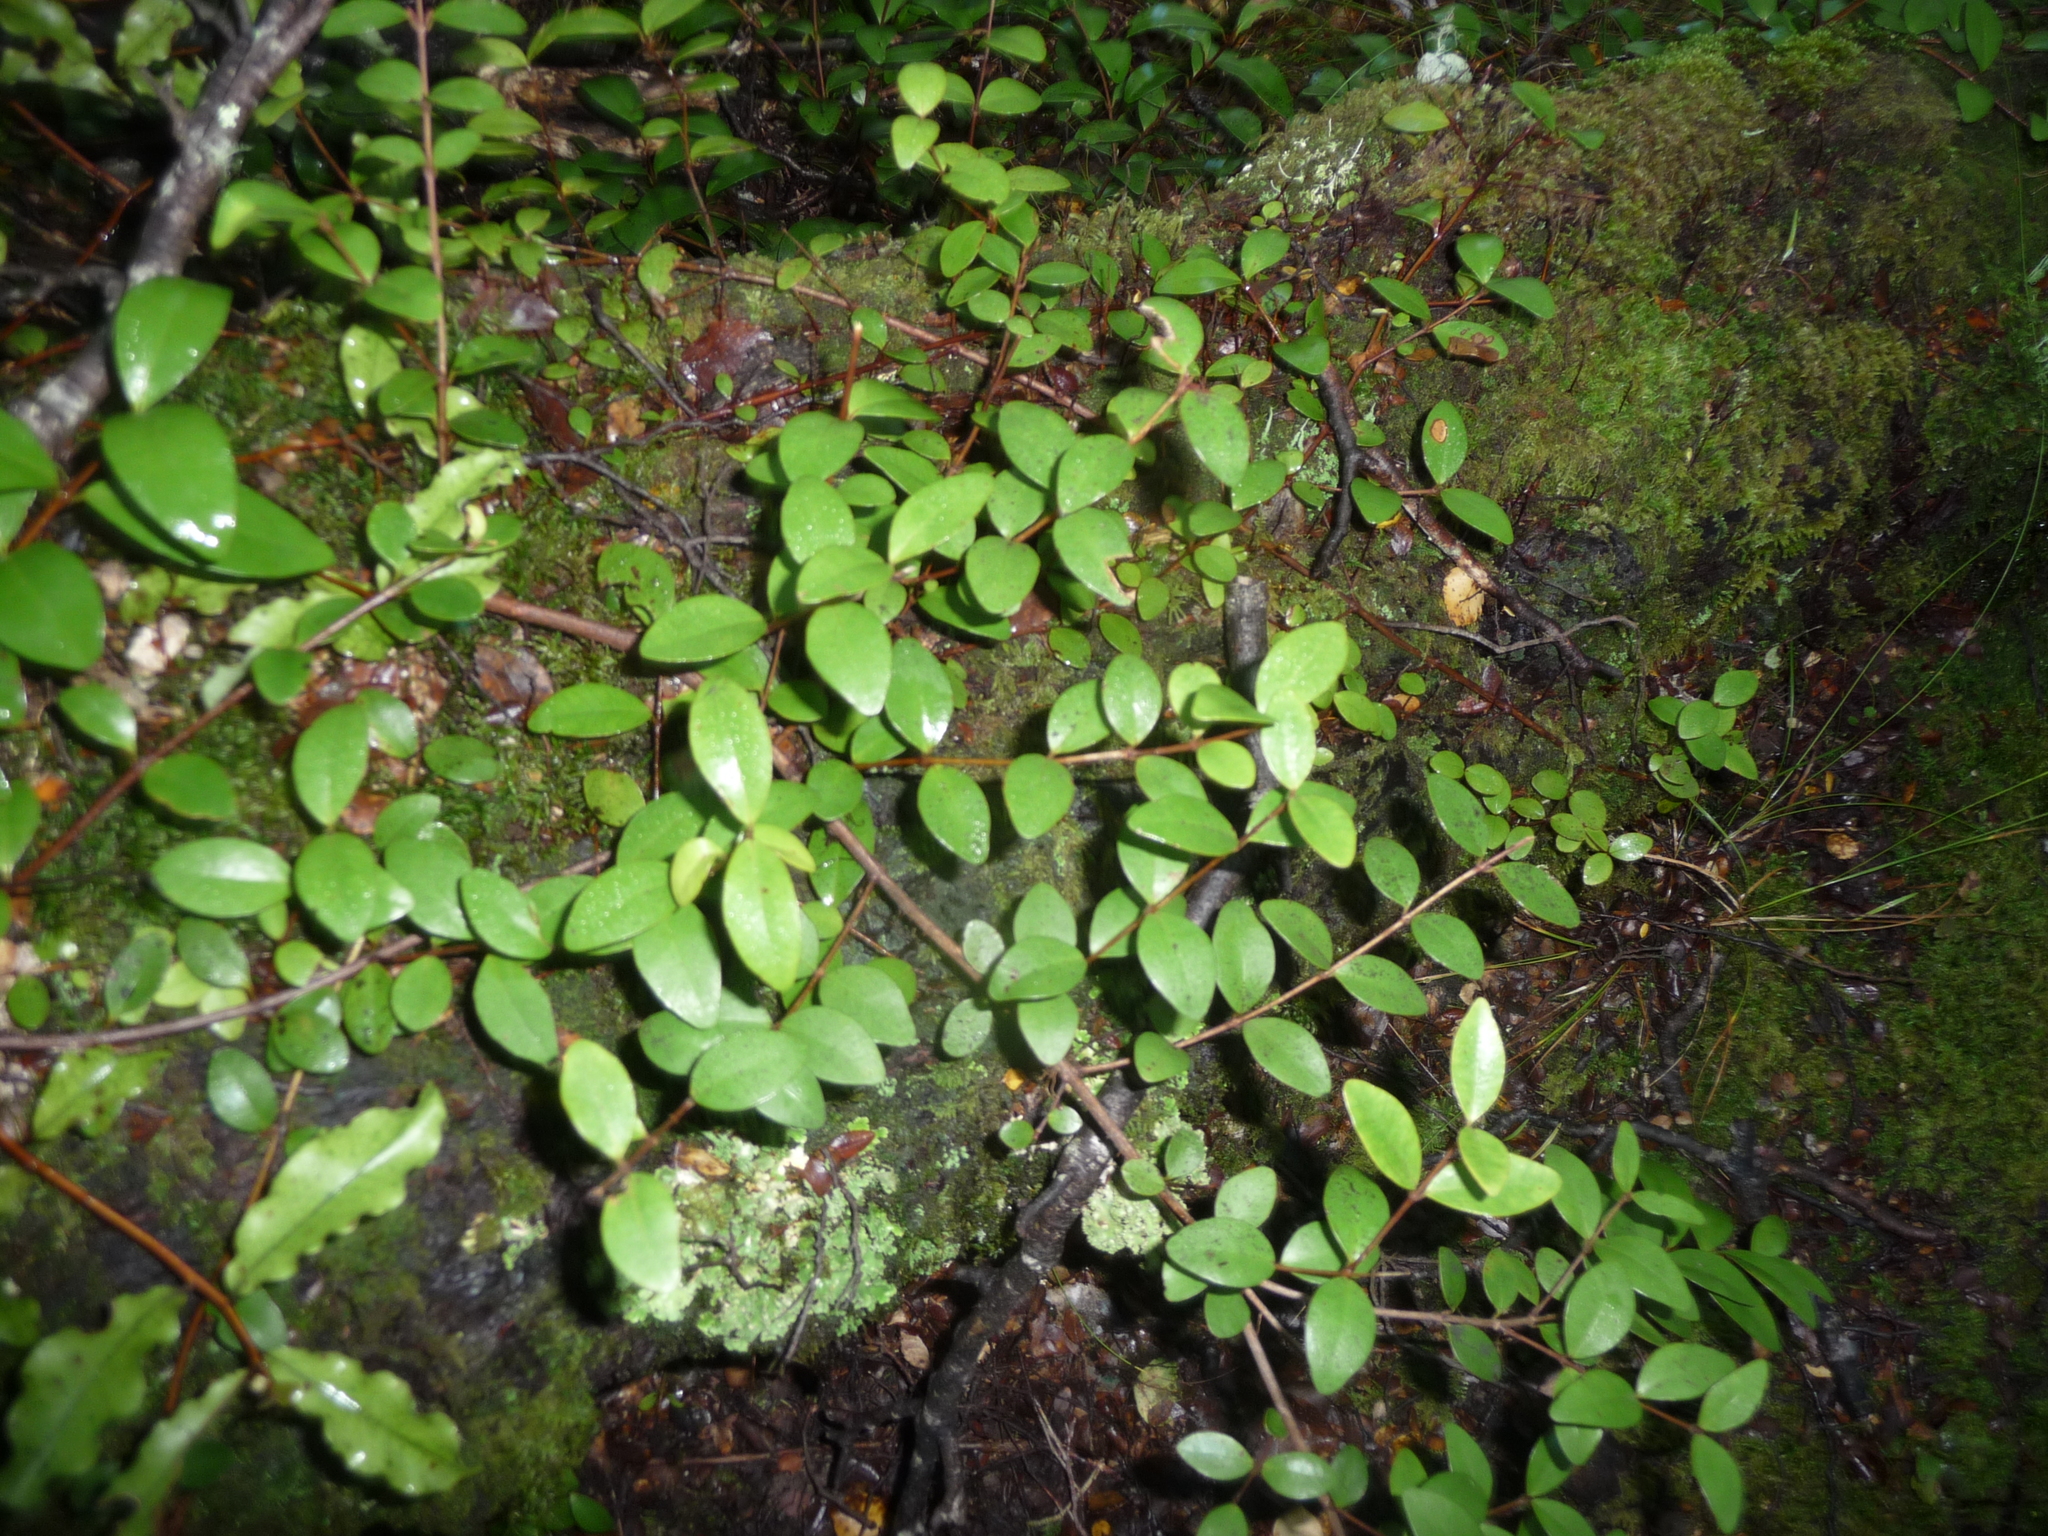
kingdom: Plantae
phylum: Tracheophyta
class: Magnoliopsida
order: Myrtales
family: Myrtaceae
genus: Metrosideros
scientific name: Metrosideros fulgens
